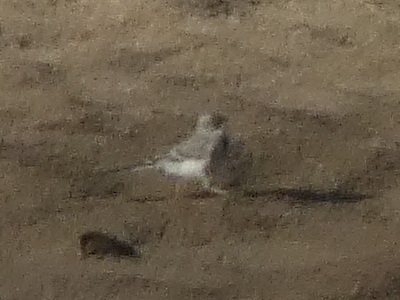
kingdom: Animalia
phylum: Chordata
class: Aves
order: Passeriformes
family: Motacillidae
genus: Motacilla
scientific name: Motacilla alba
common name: White wagtail
